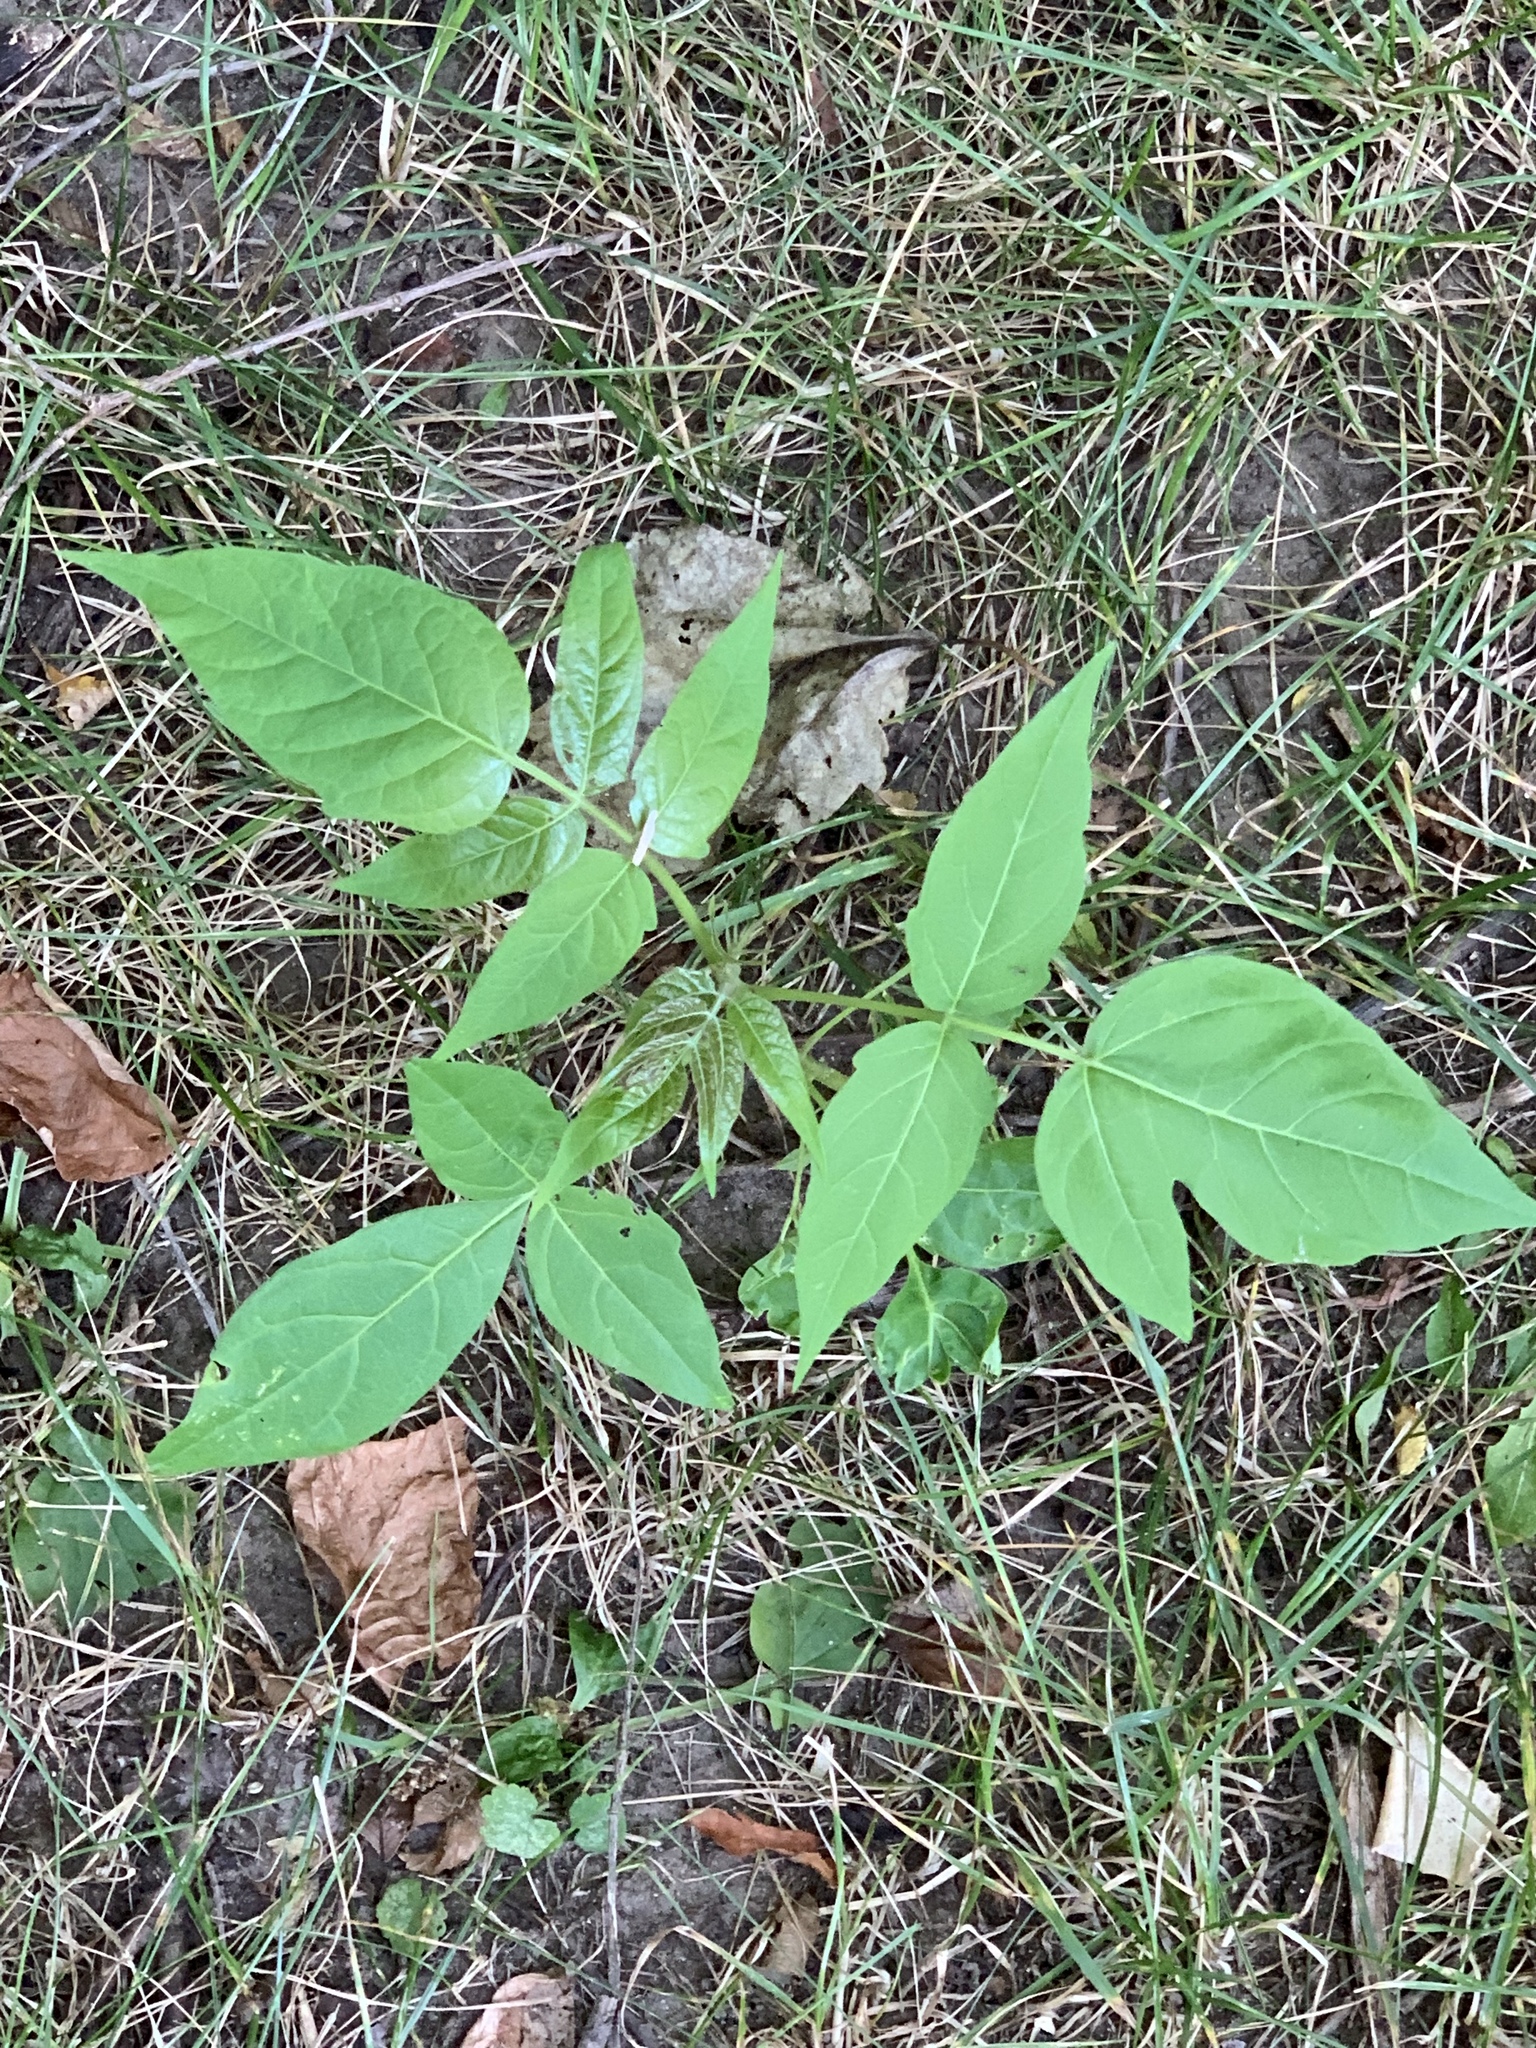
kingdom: Plantae
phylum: Tracheophyta
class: Magnoliopsida
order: Sapindales
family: Simaroubaceae
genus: Ailanthus
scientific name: Ailanthus altissima
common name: Tree-of-heaven
